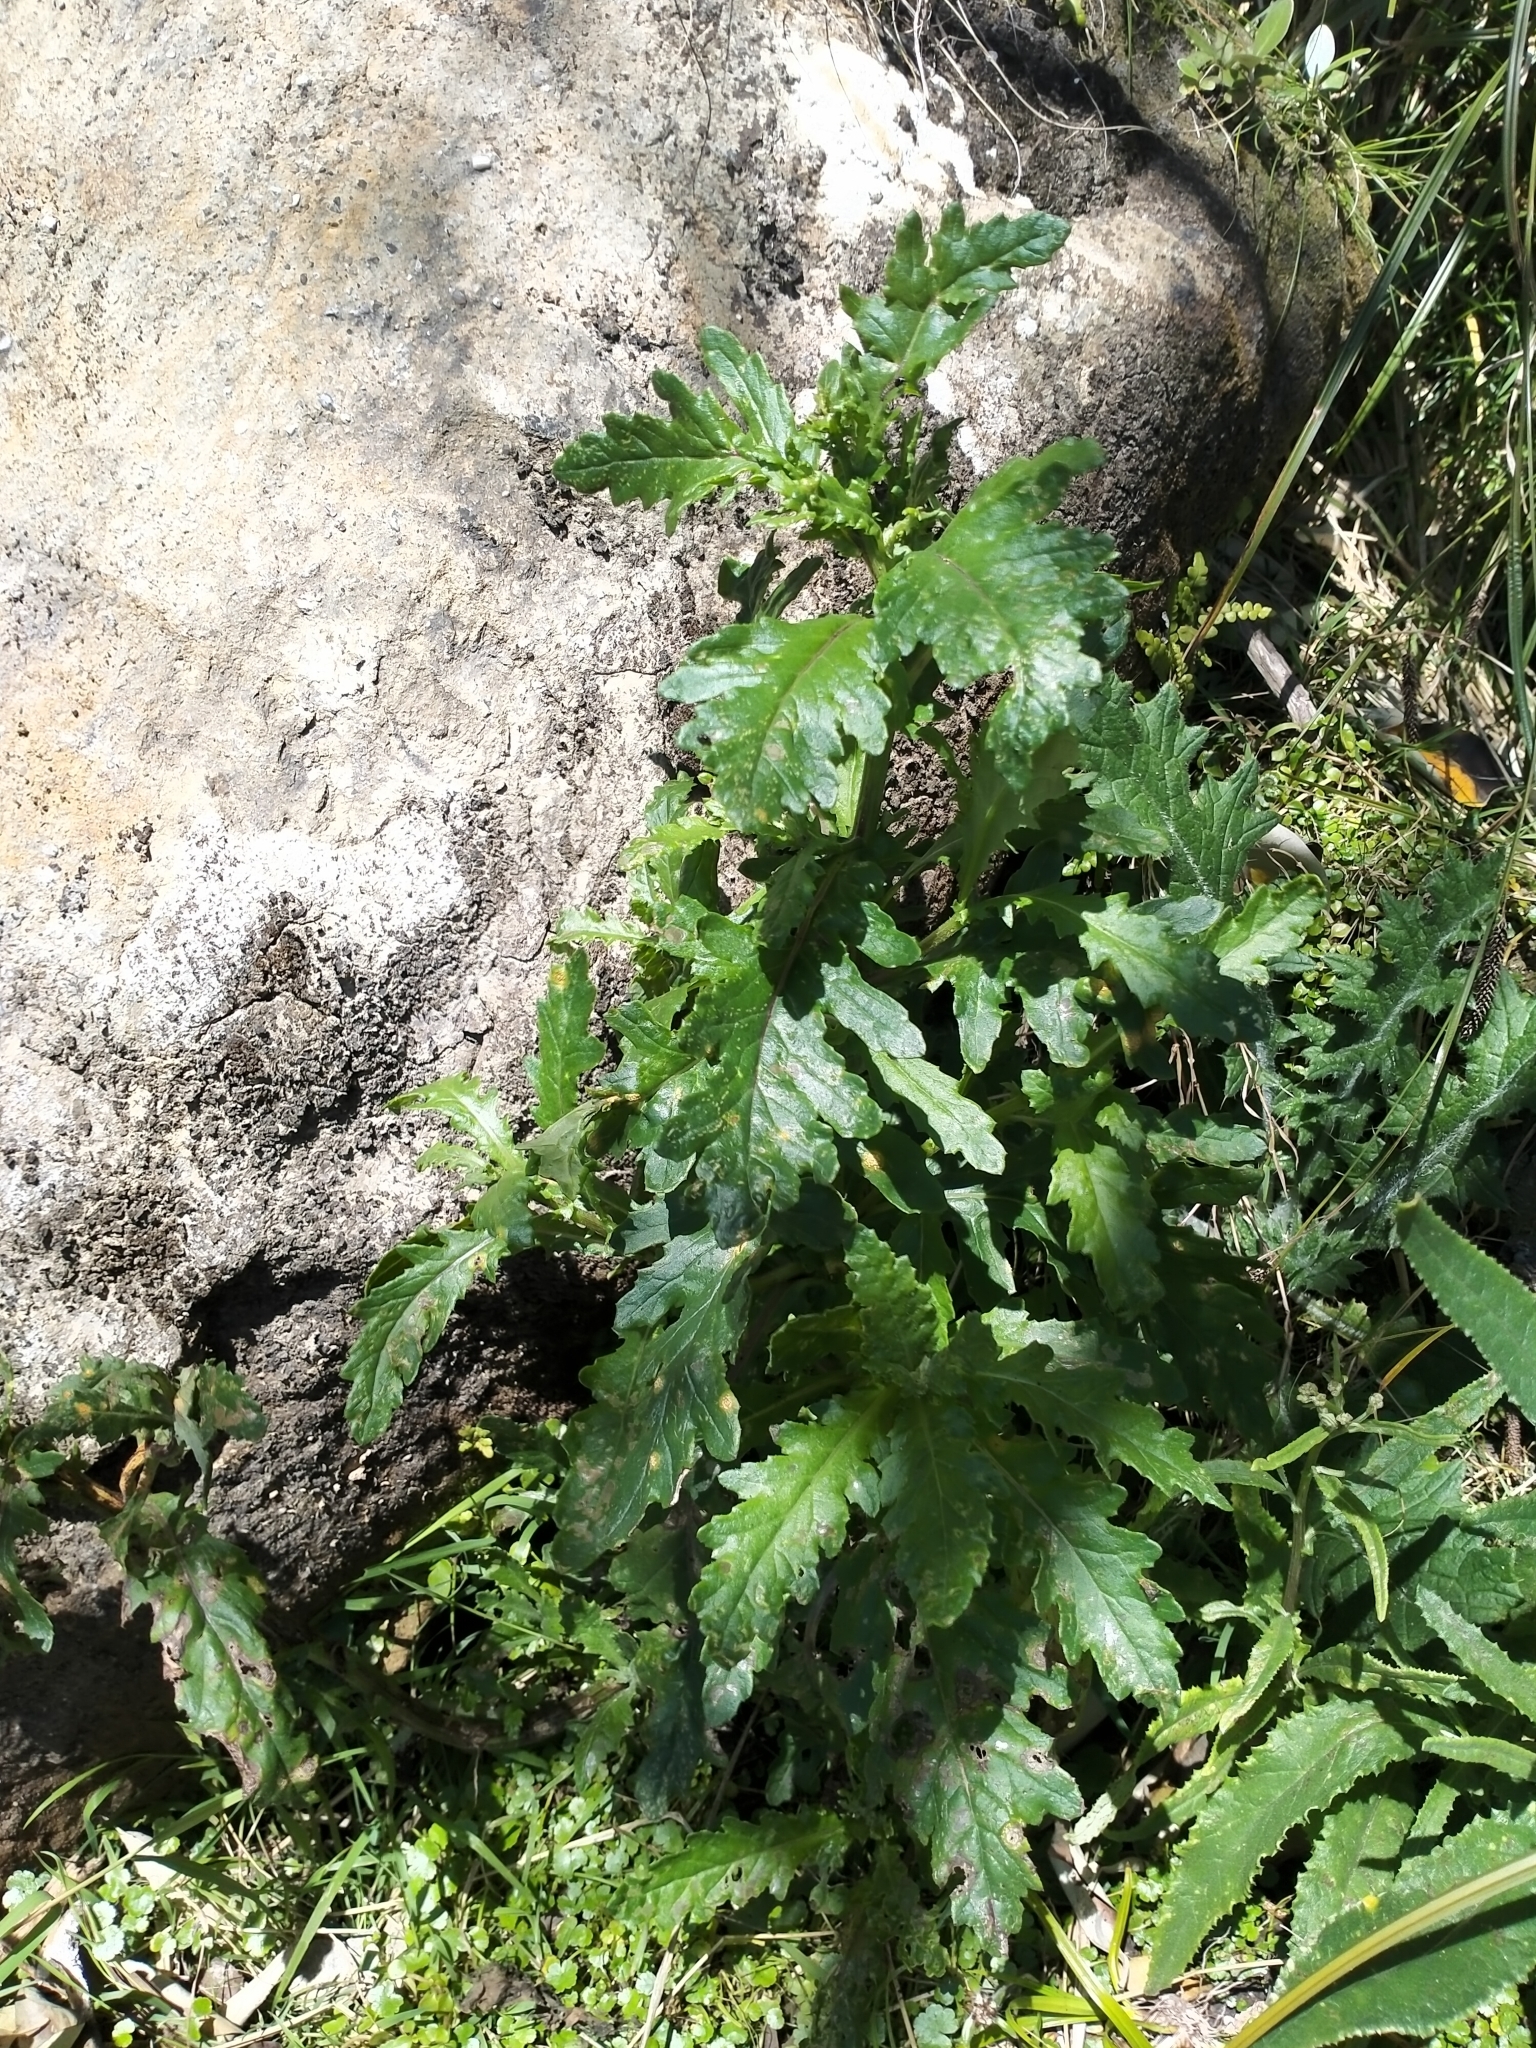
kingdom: Plantae
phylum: Tracheophyta
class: Magnoliopsida
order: Asterales
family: Asteraceae
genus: Senecio
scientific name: Senecio biserratus
